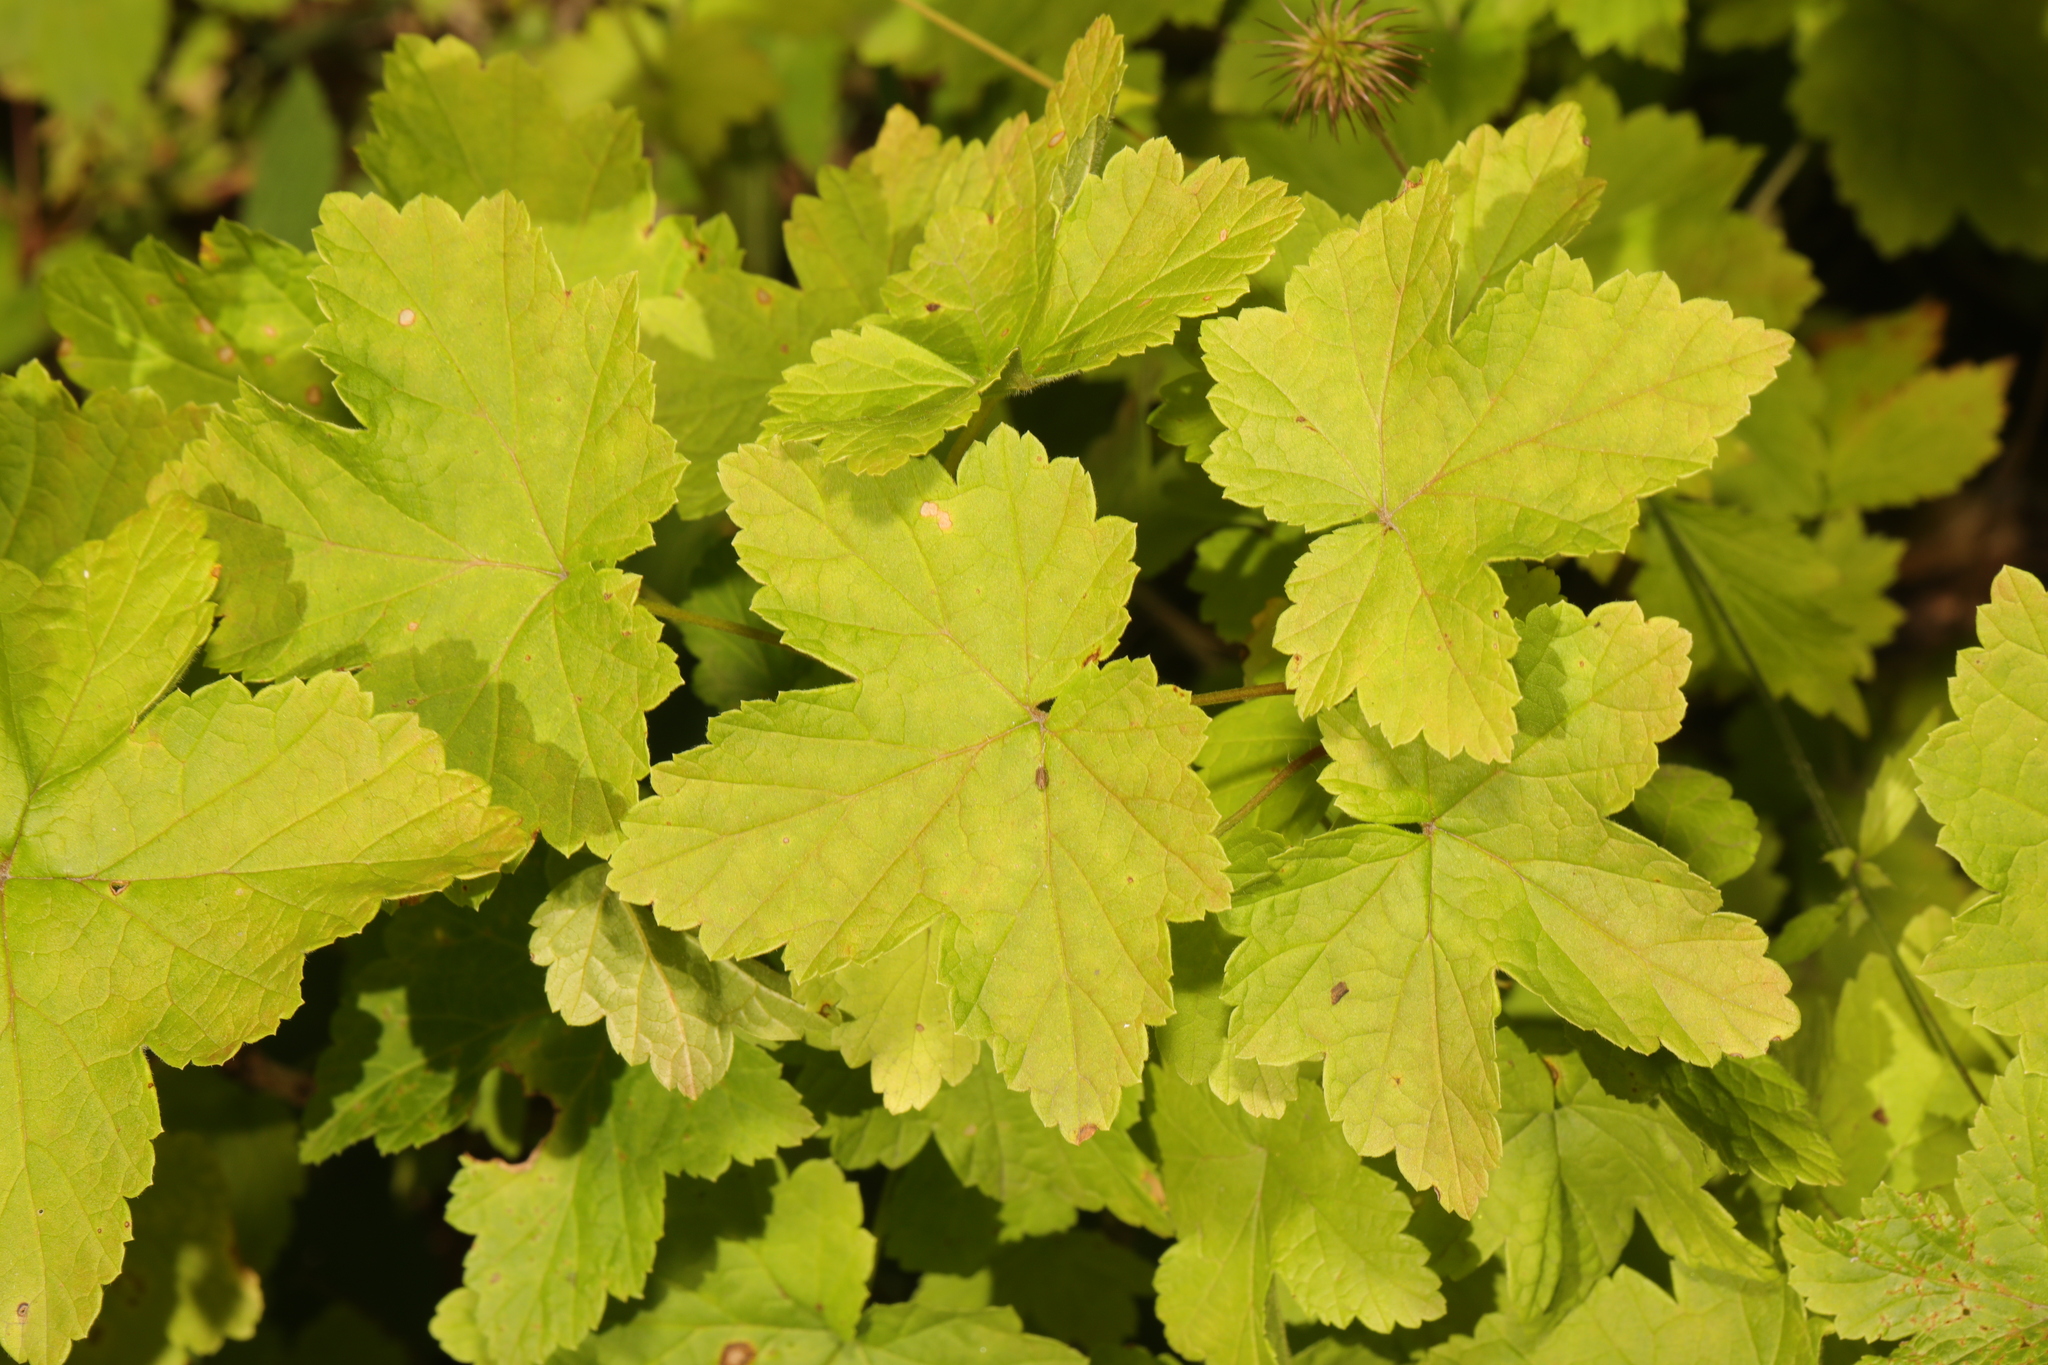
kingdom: Plantae
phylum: Tracheophyta
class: Magnoliopsida
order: Saxifragales
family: Grossulariaceae
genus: Ribes
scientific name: Ribes rubrum
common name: Red currant
